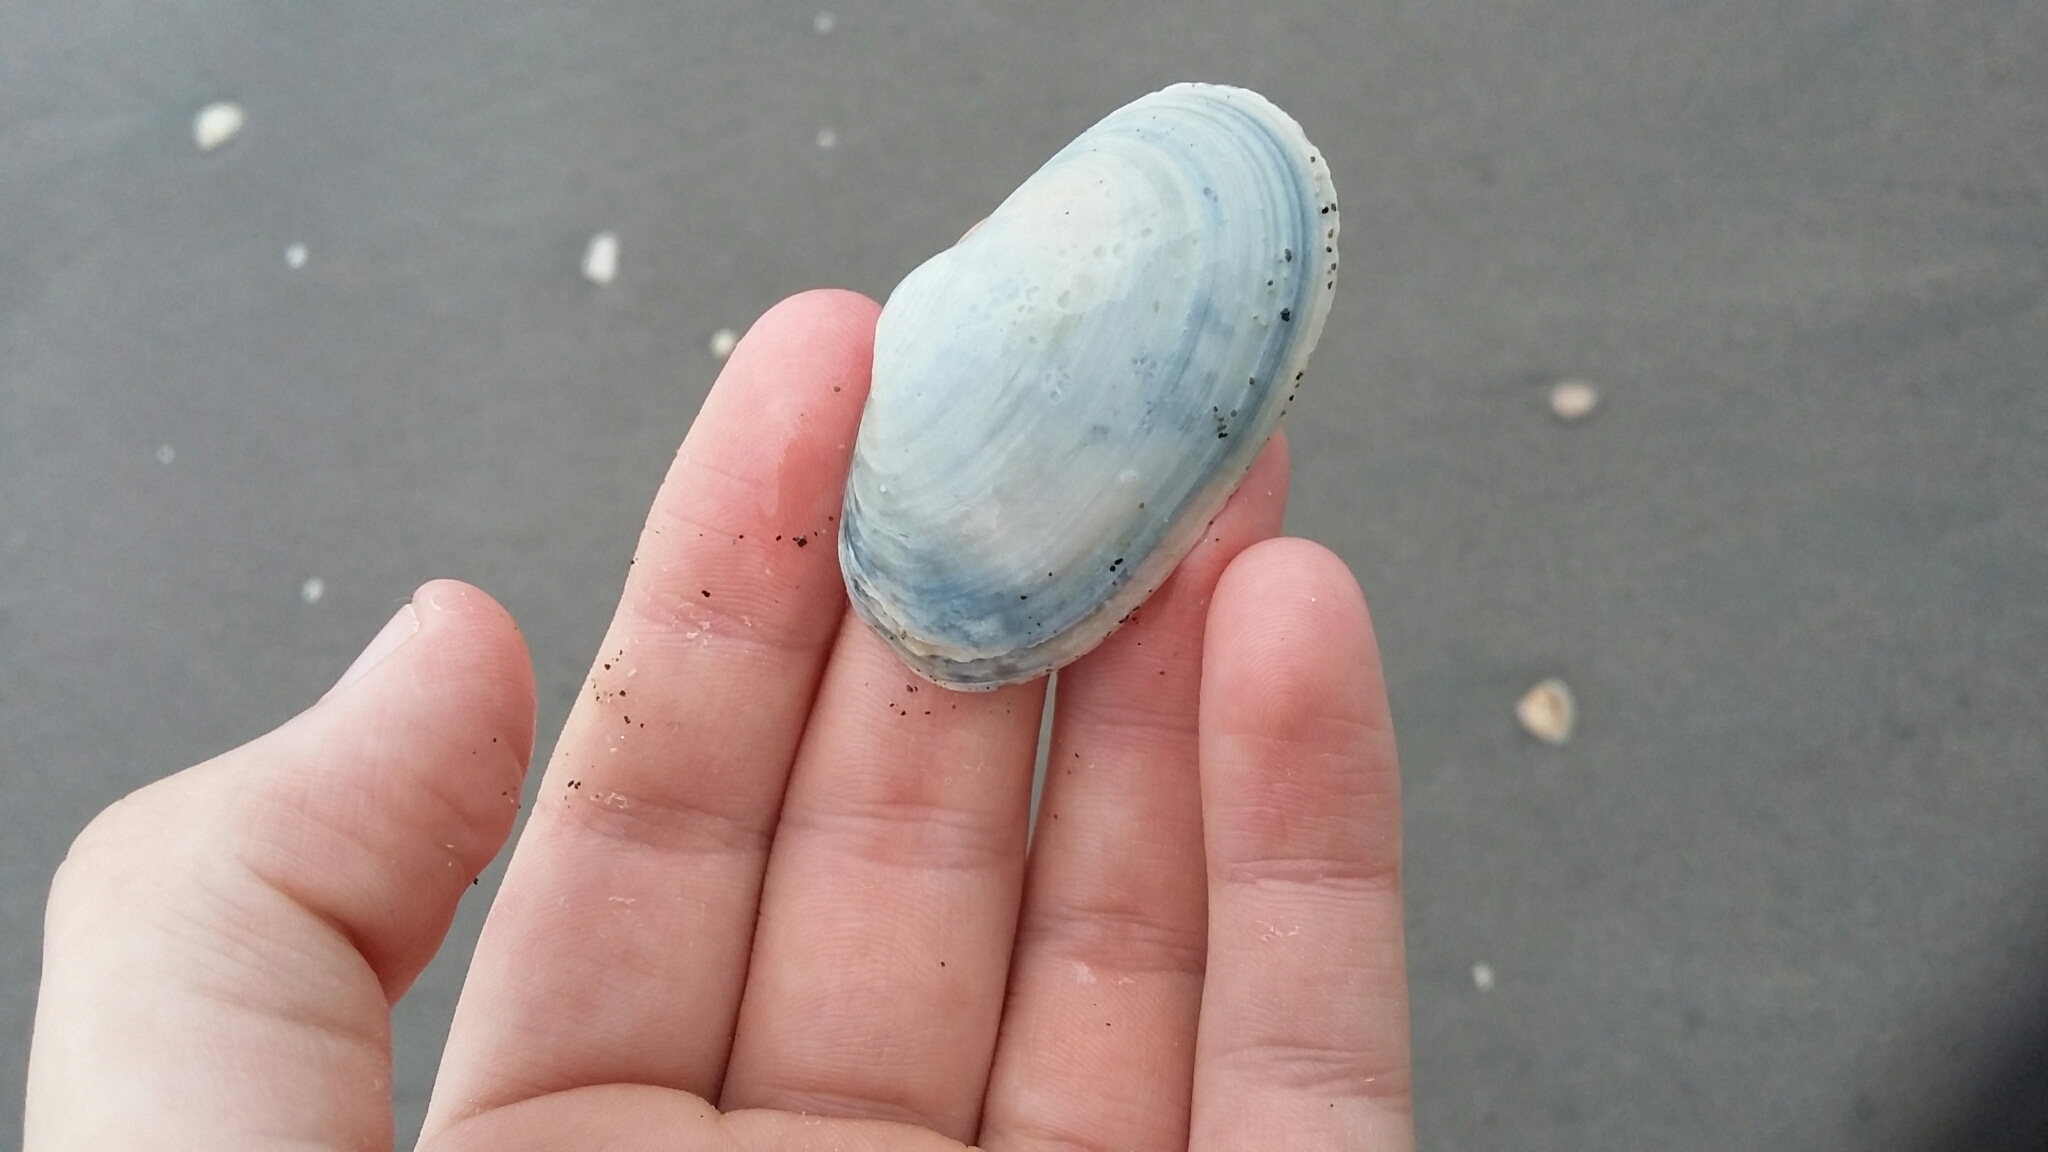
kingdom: Animalia
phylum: Mollusca
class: Bivalvia
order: Venerida
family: Mesodesmatidae
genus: Paphies
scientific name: Paphies australis
